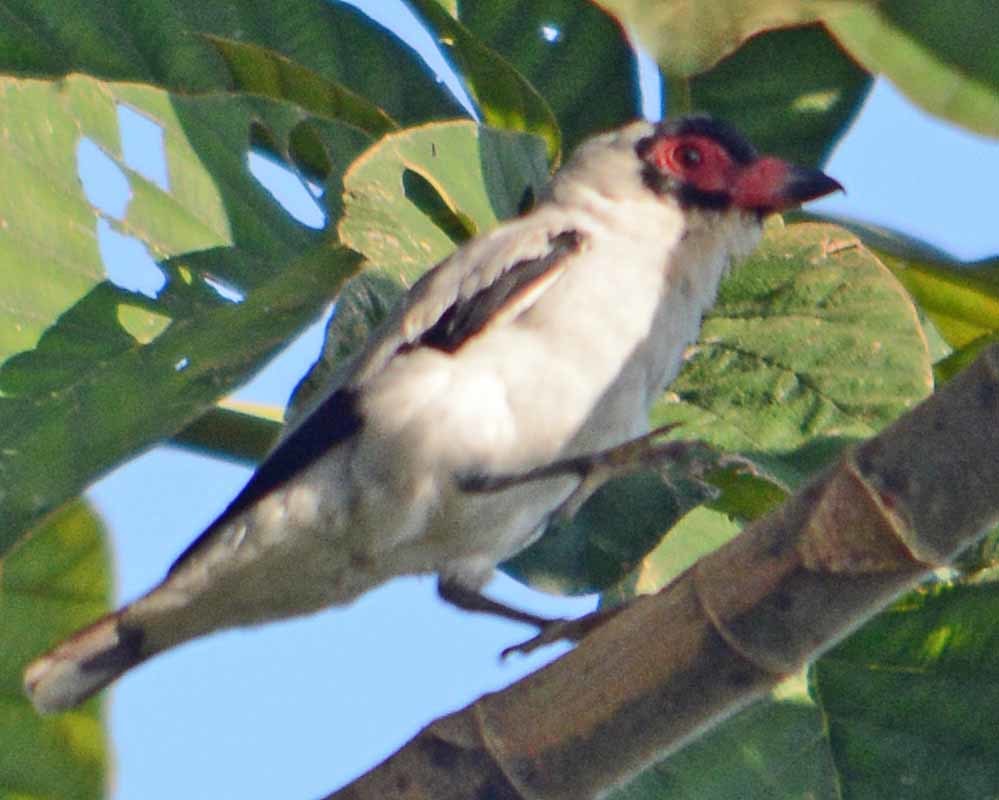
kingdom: Animalia
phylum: Chordata
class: Aves
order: Passeriformes
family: Cotingidae
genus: Tityra
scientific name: Tityra semifasciata
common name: Masked tityra
